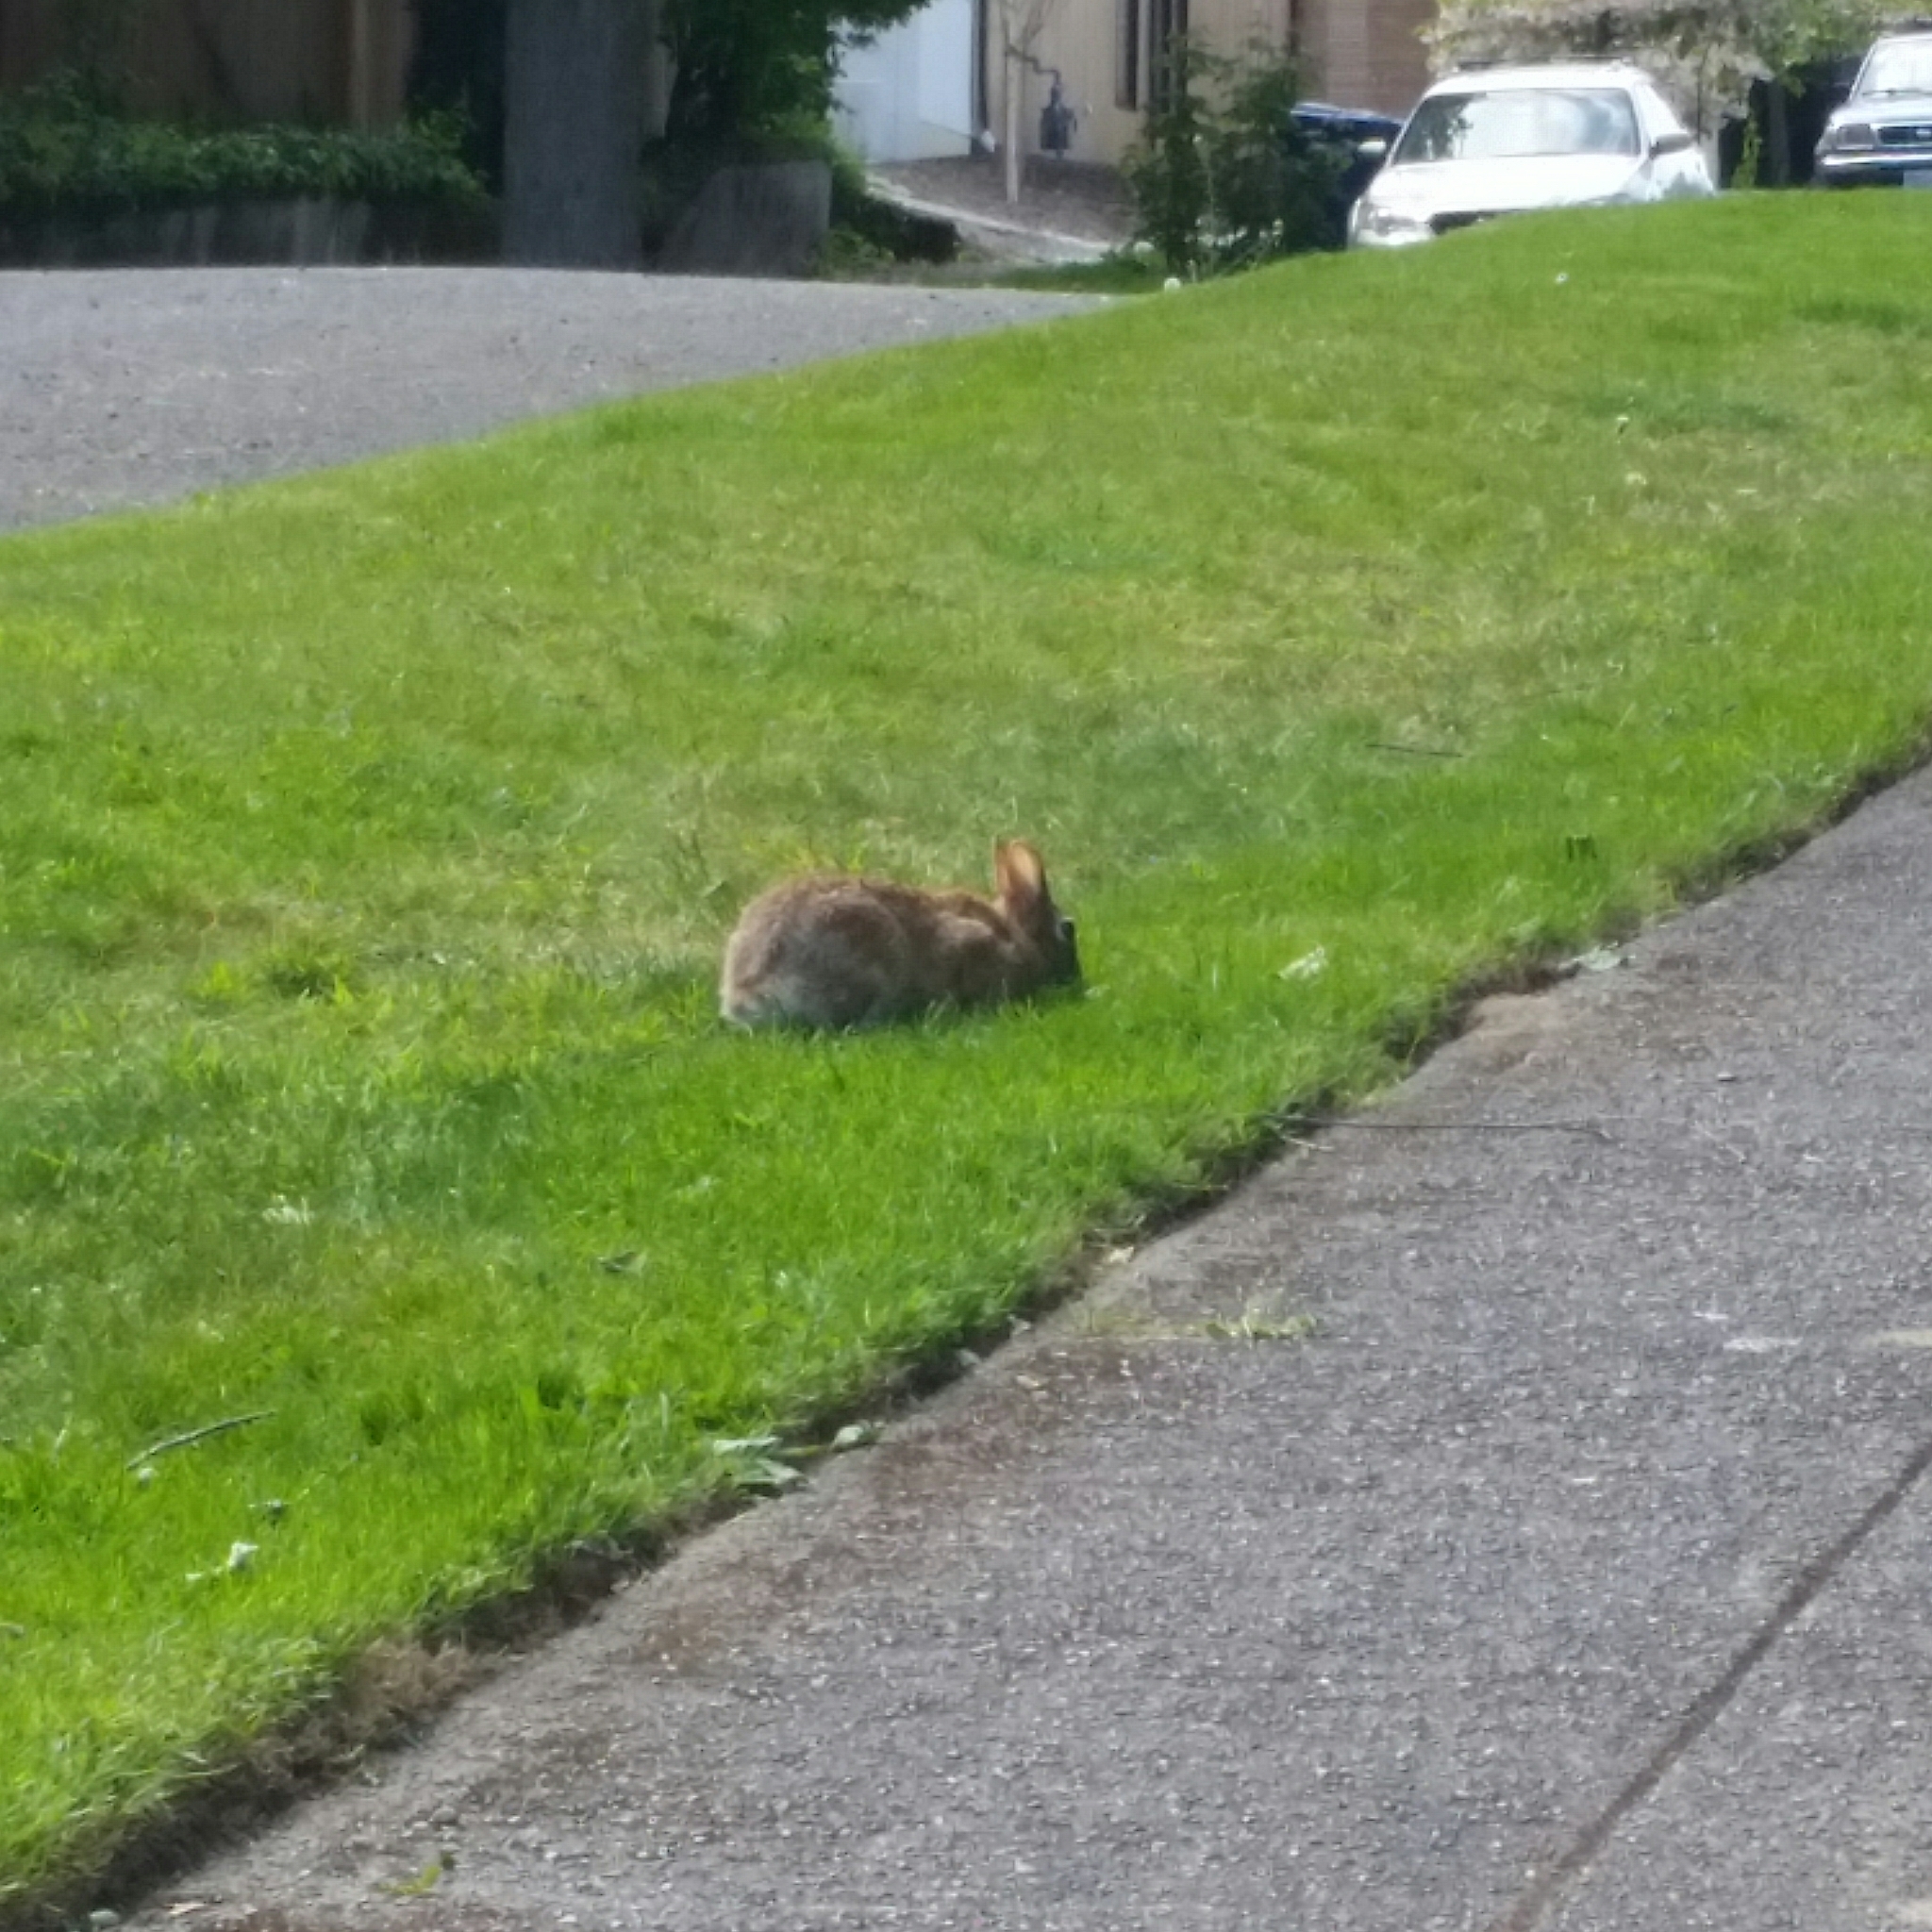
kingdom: Animalia
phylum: Chordata
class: Mammalia
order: Lagomorpha
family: Leporidae
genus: Sylvilagus
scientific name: Sylvilagus floridanus
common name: Eastern cottontail
